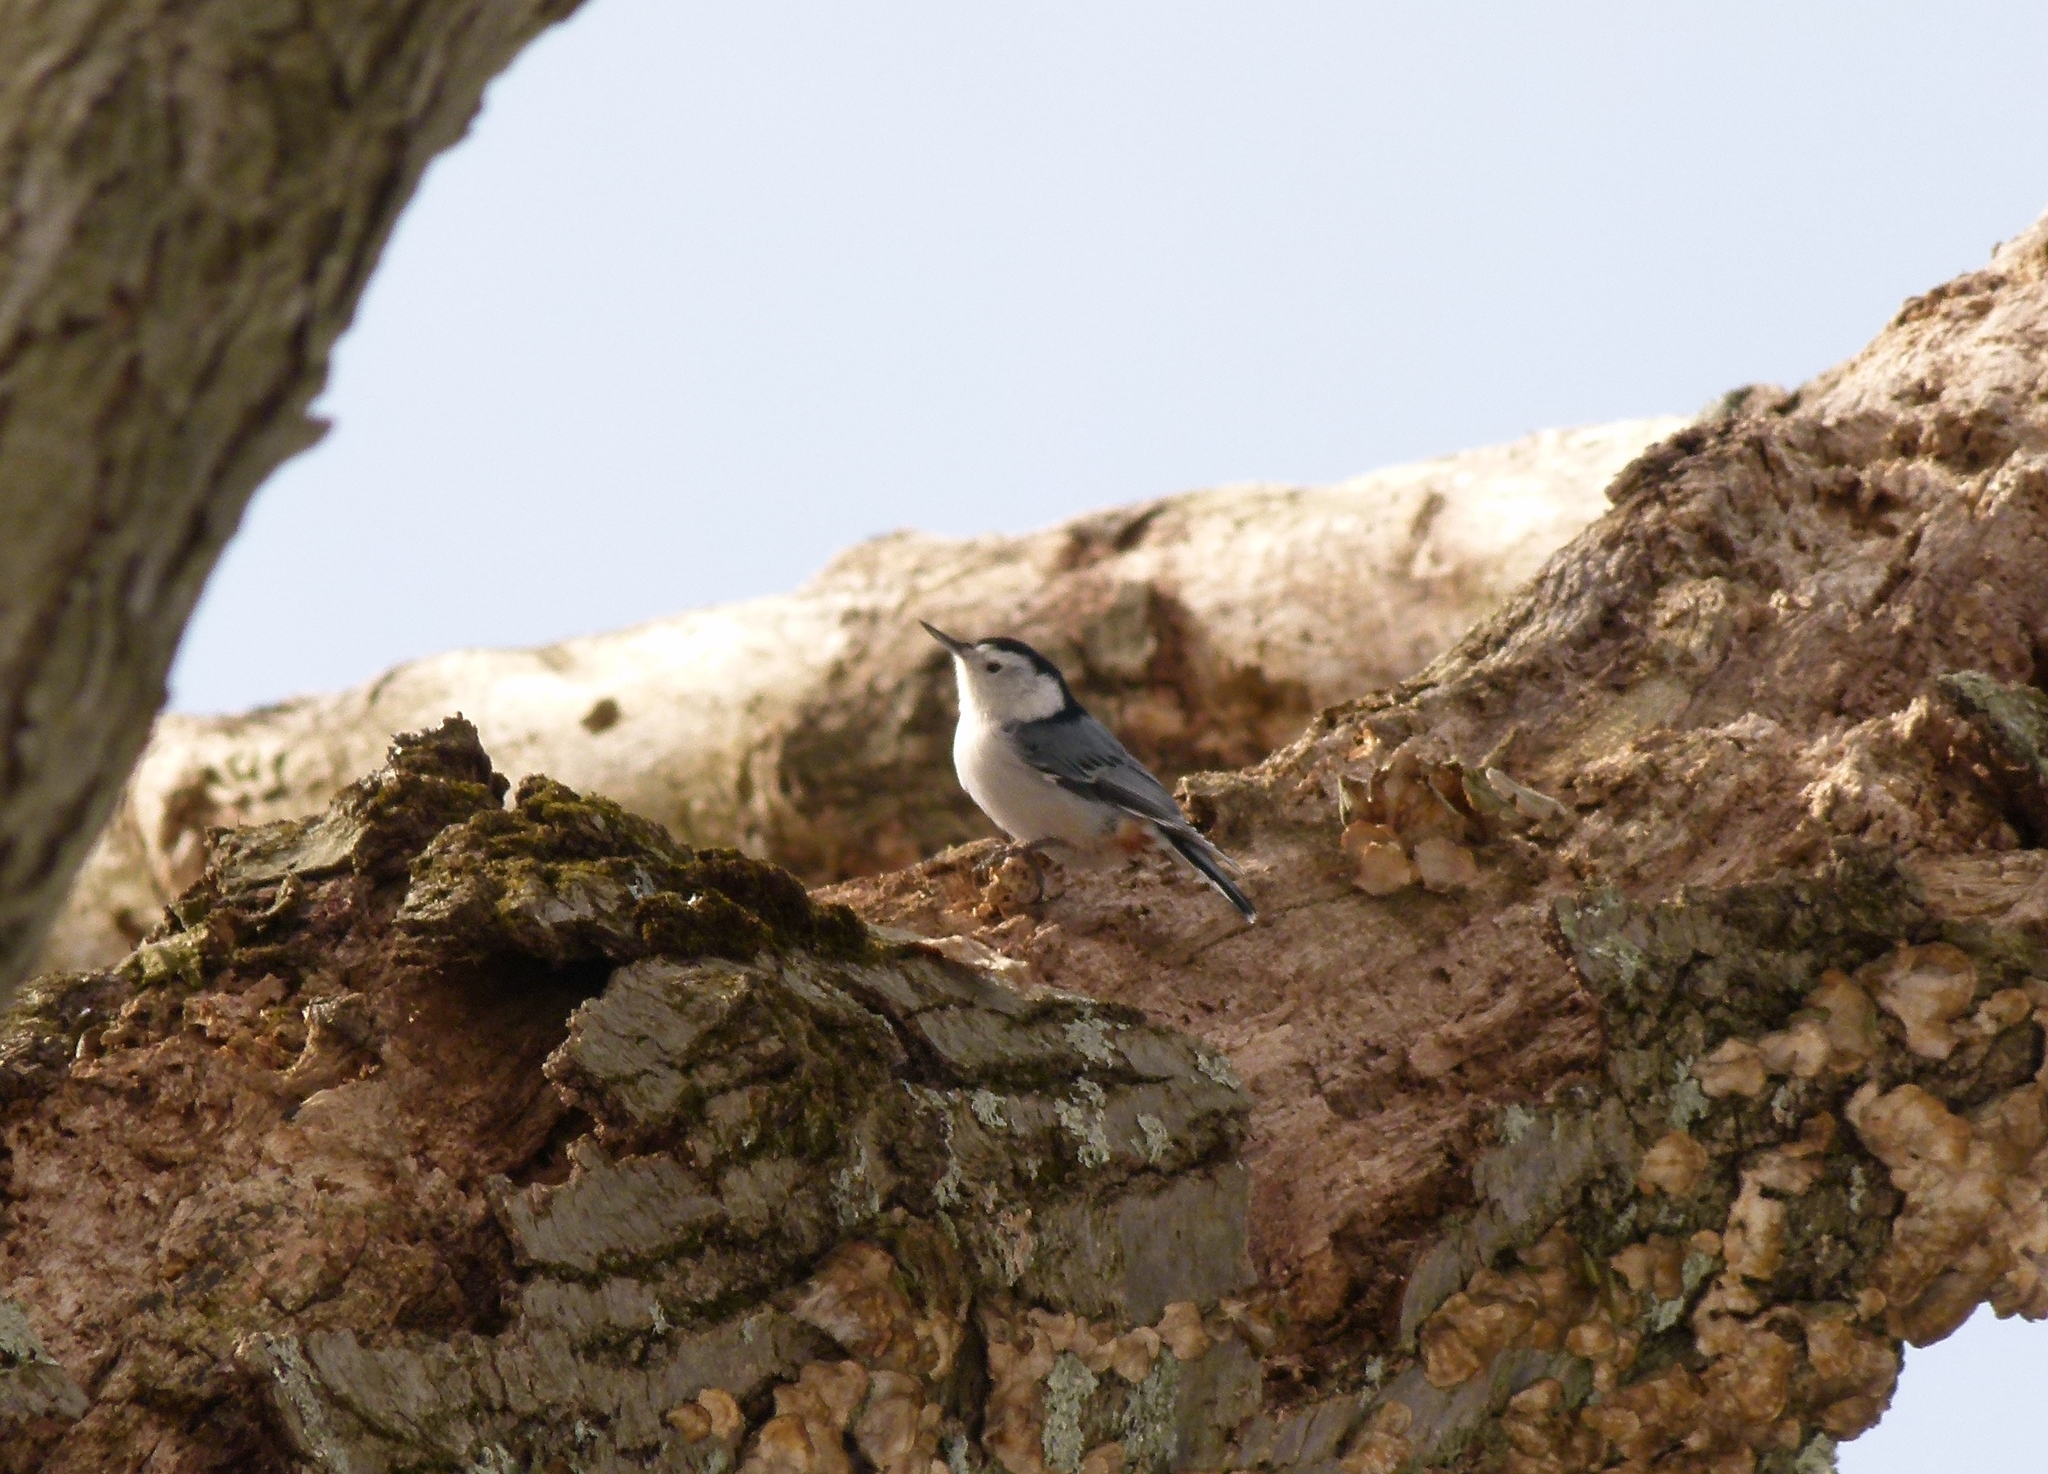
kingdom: Animalia
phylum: Chordata
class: Aves
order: Passeriformes
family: Sittidae
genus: Sitta
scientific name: Sitta carolinensis
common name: White-breasted nuthatch
